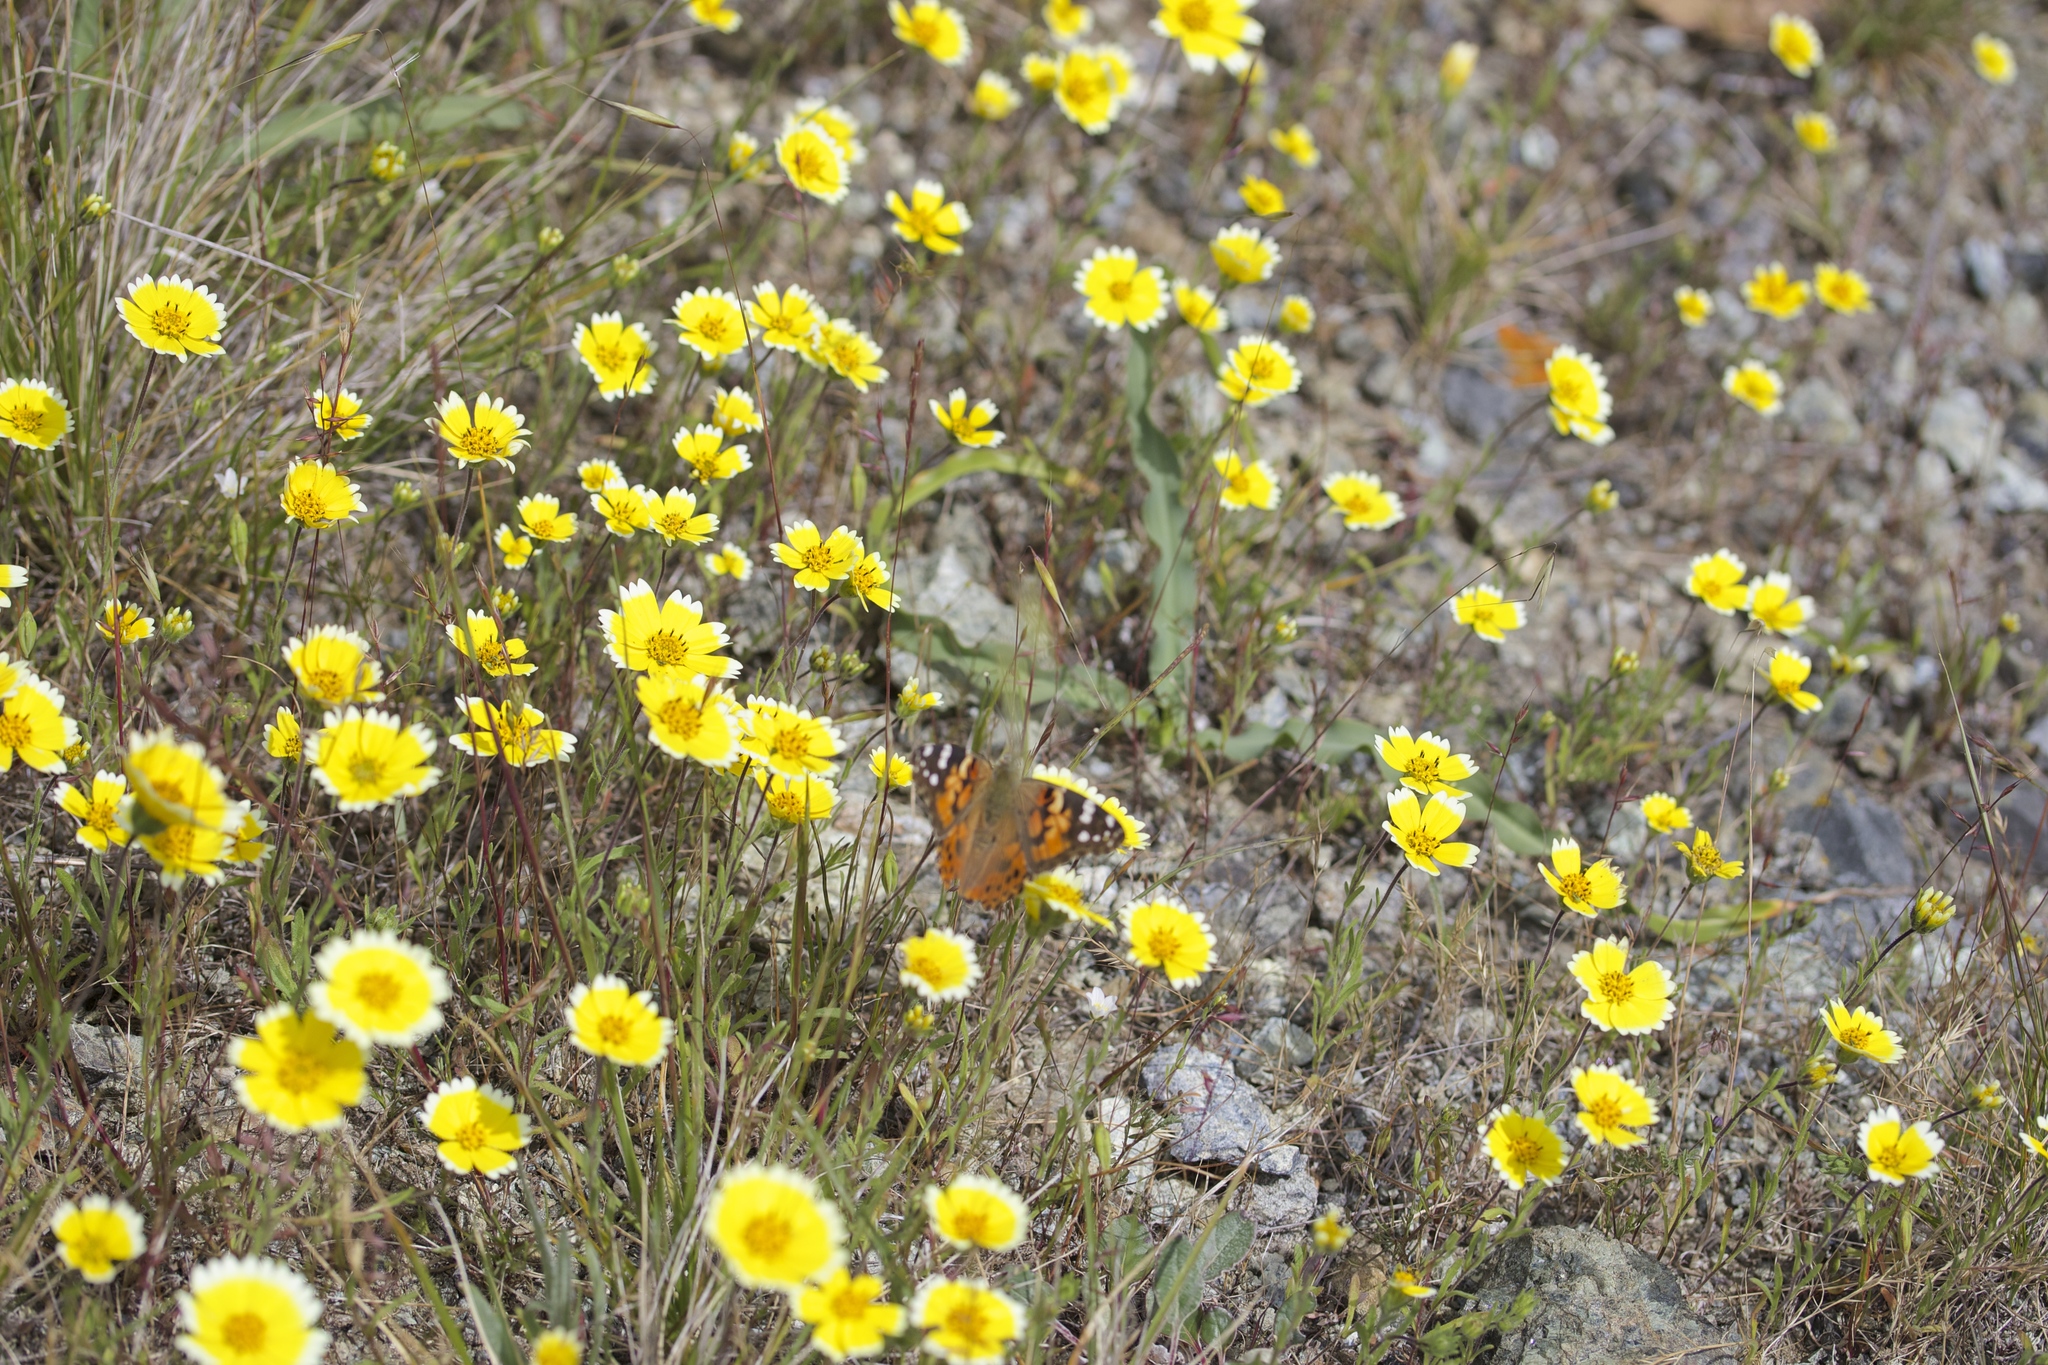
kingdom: Plantae
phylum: Tracheophyta
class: Magnoliopsida
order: Asterales
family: Asteraceae
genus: Layia
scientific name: Layia platyglossa
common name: Tidy-tips
